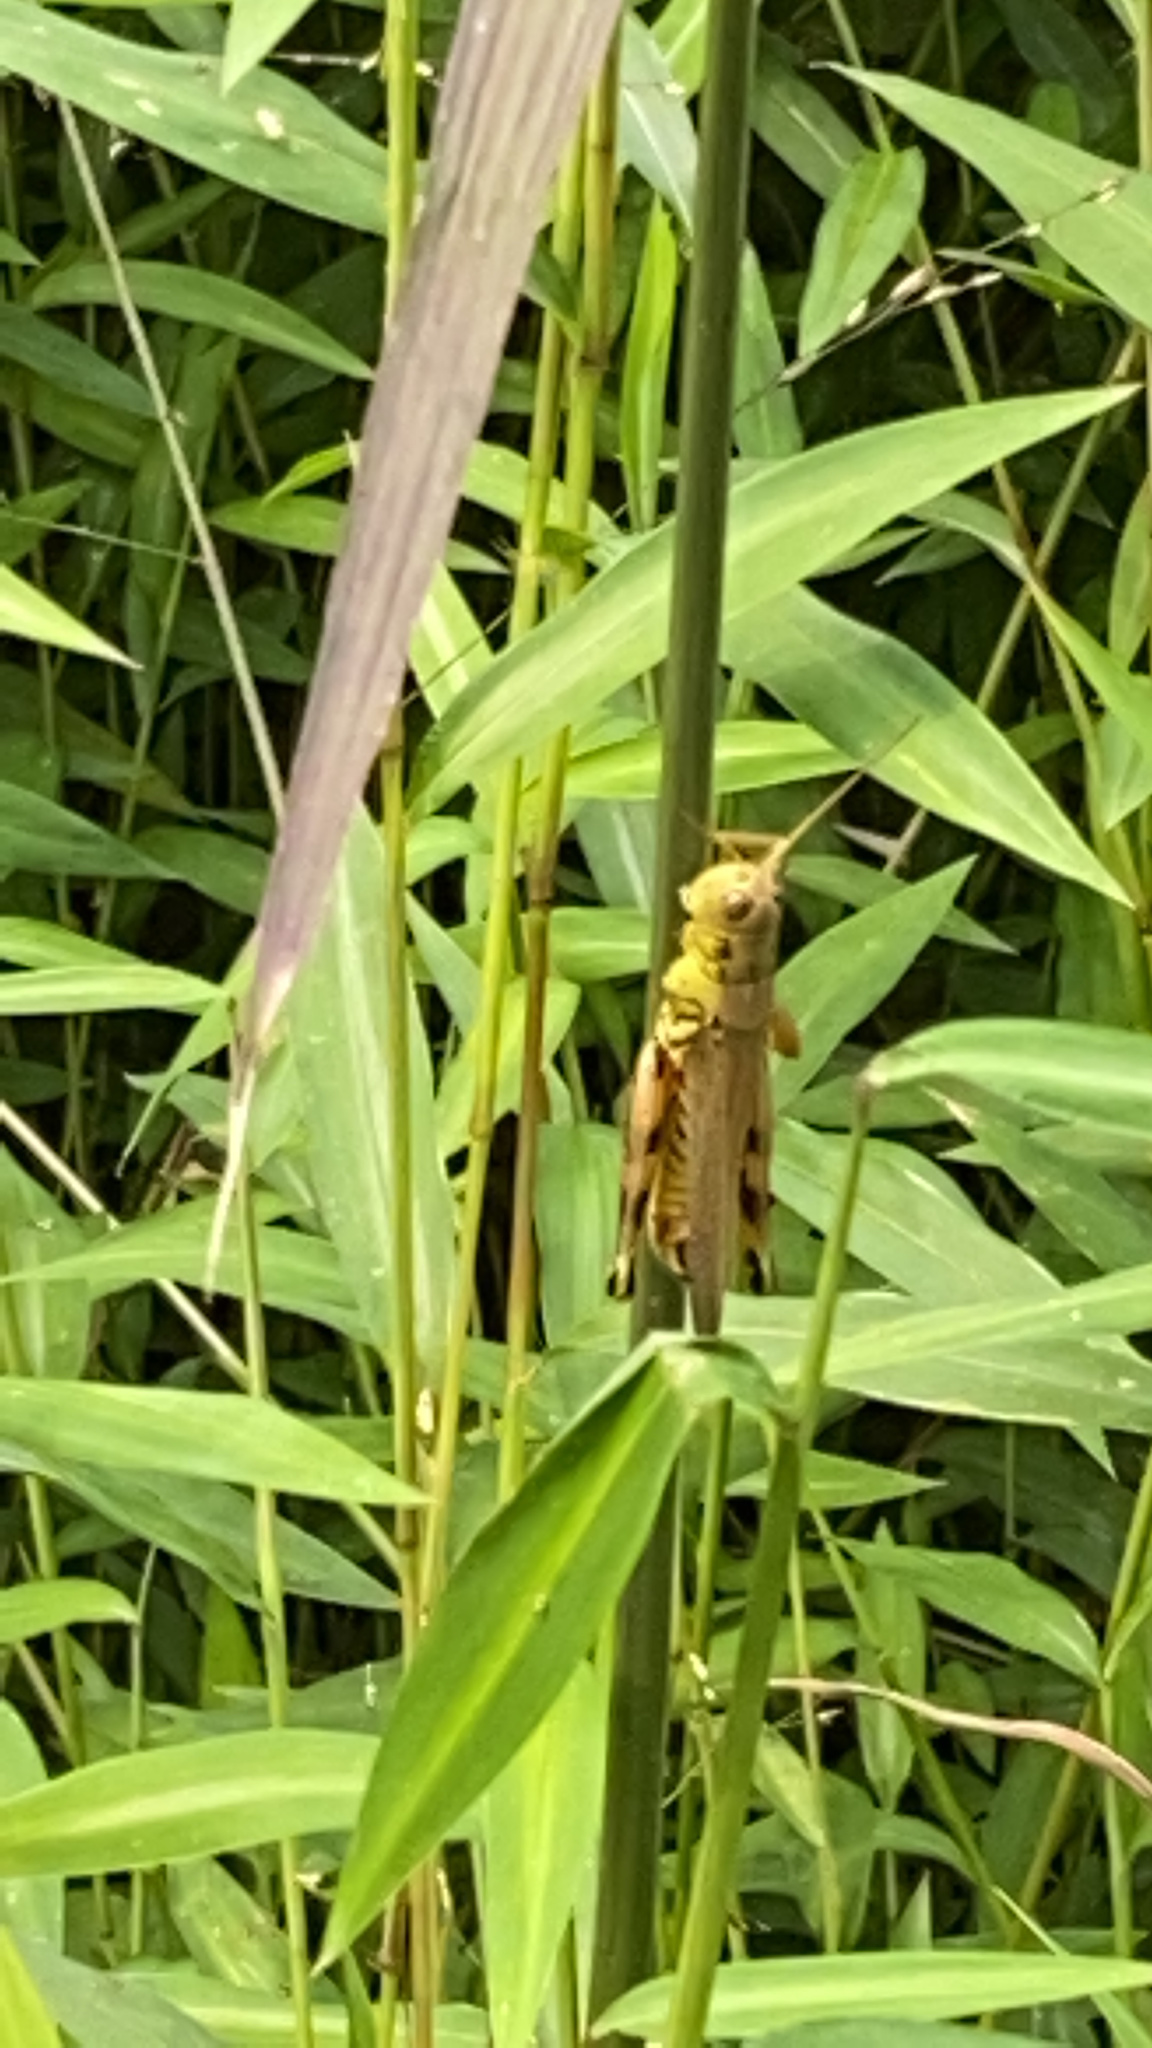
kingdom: Animalia
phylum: Arthropoda
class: Insecta
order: Orthoptera
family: Acrididae
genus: Melanoplus
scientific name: Melanoplus differentialis
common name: Differential grasshopper
